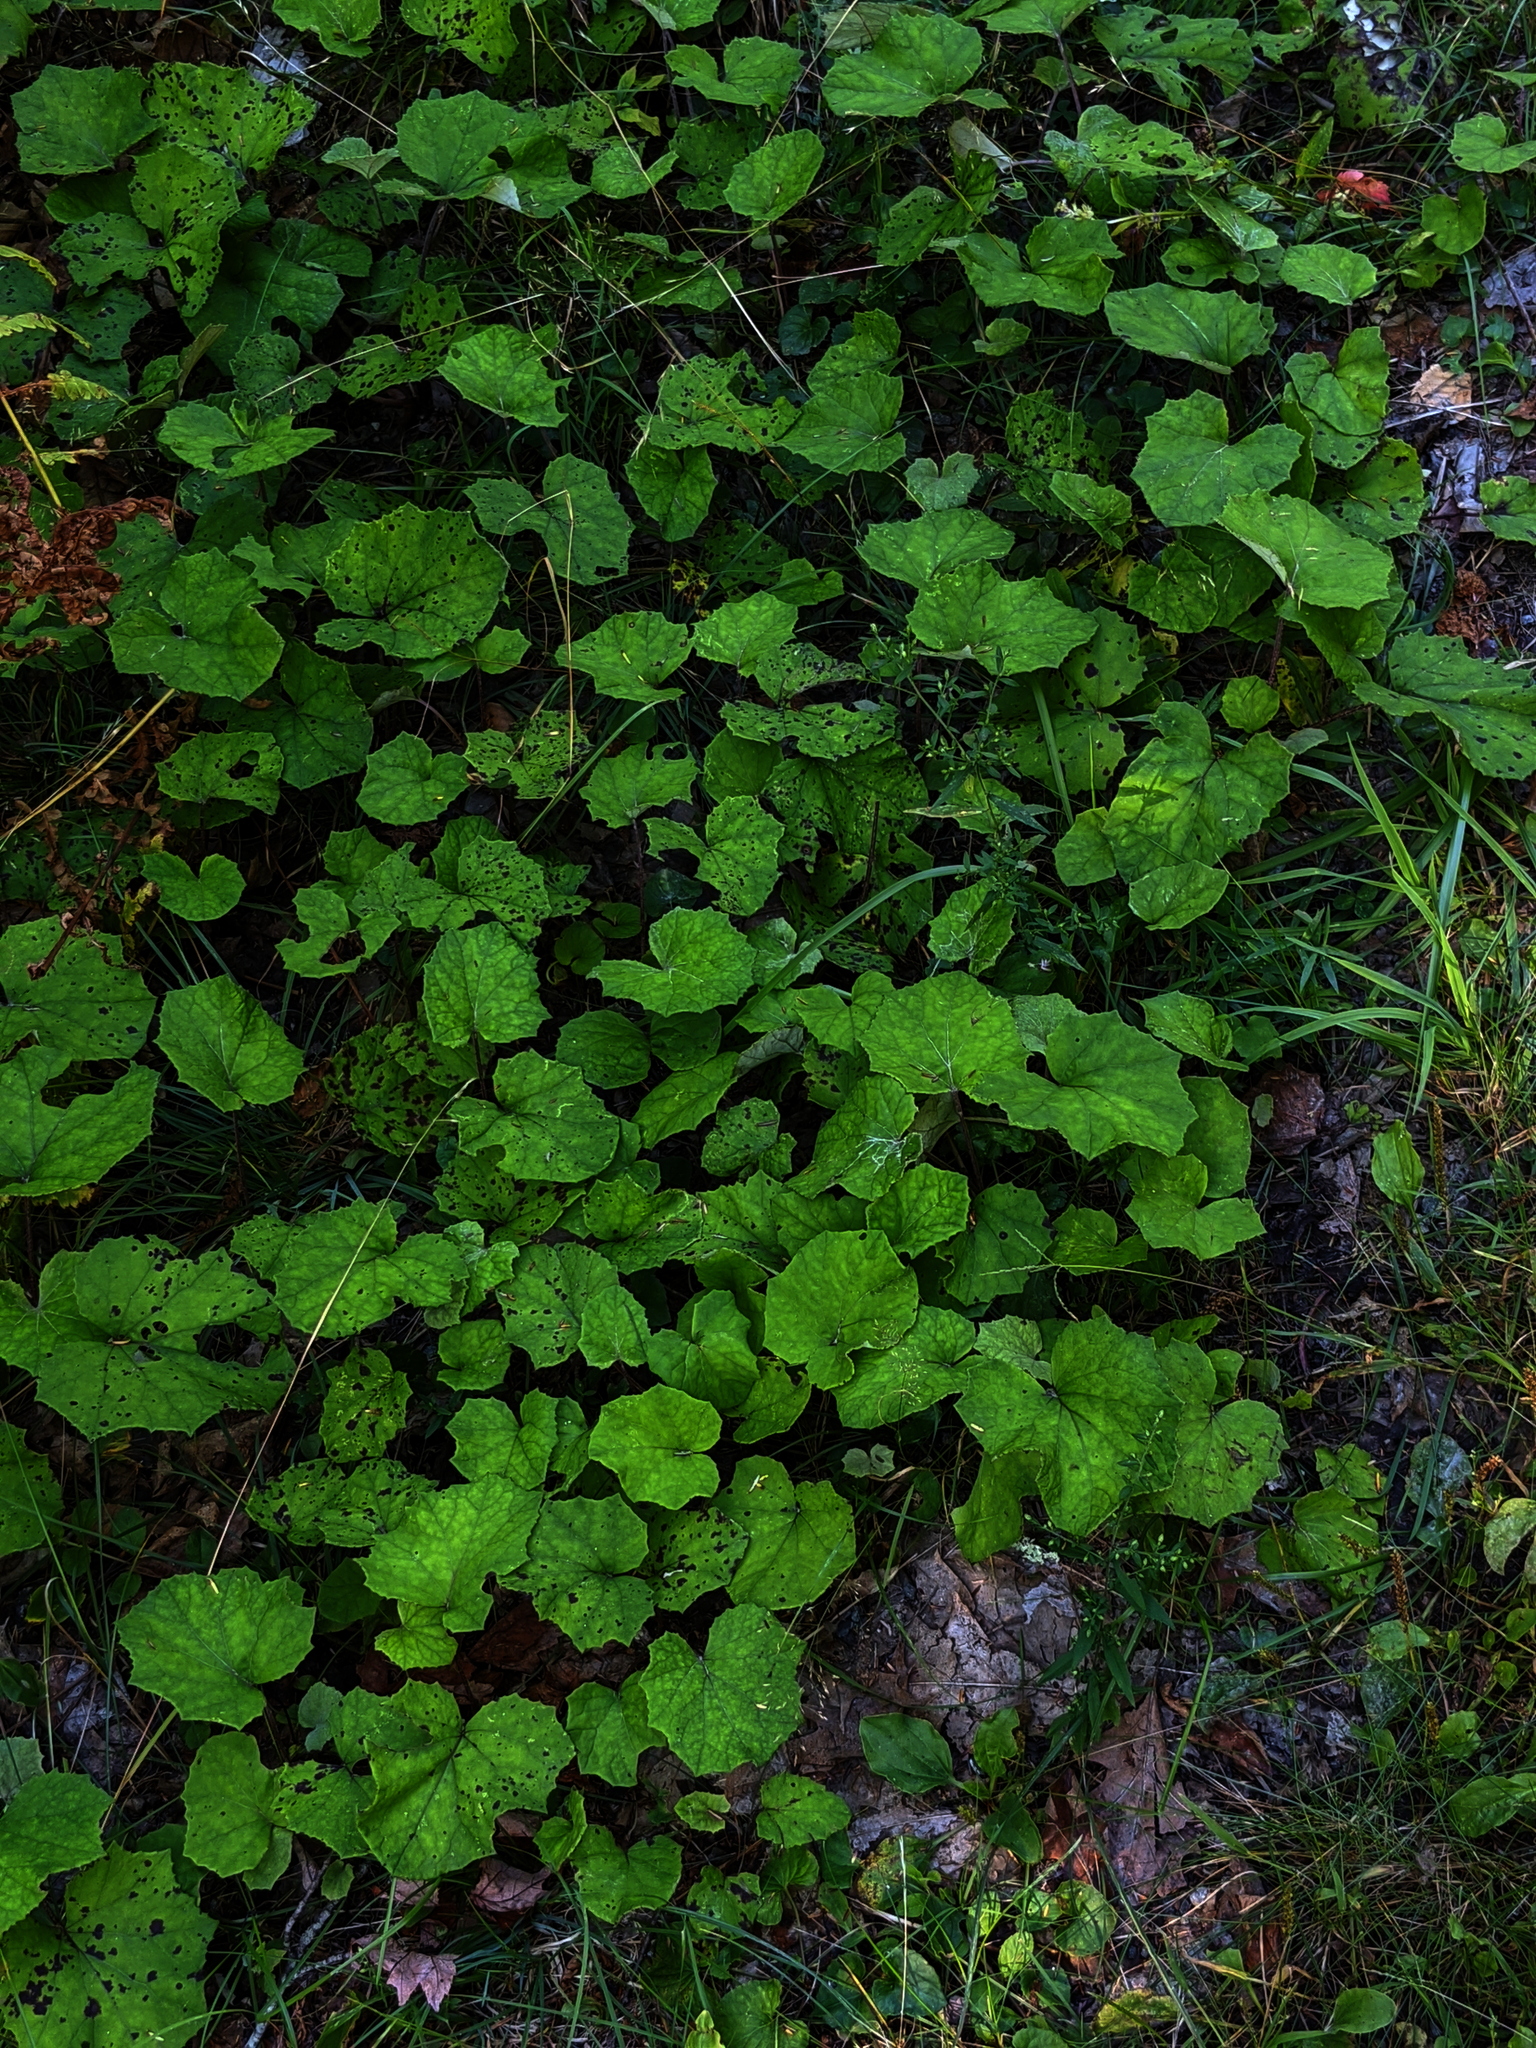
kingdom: Plantae
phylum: Tracheophyta
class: Magnoliopsida
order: Asterales
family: Asteraceae
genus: Tussilago
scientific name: Tussilago farfara
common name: Coltsfoot
